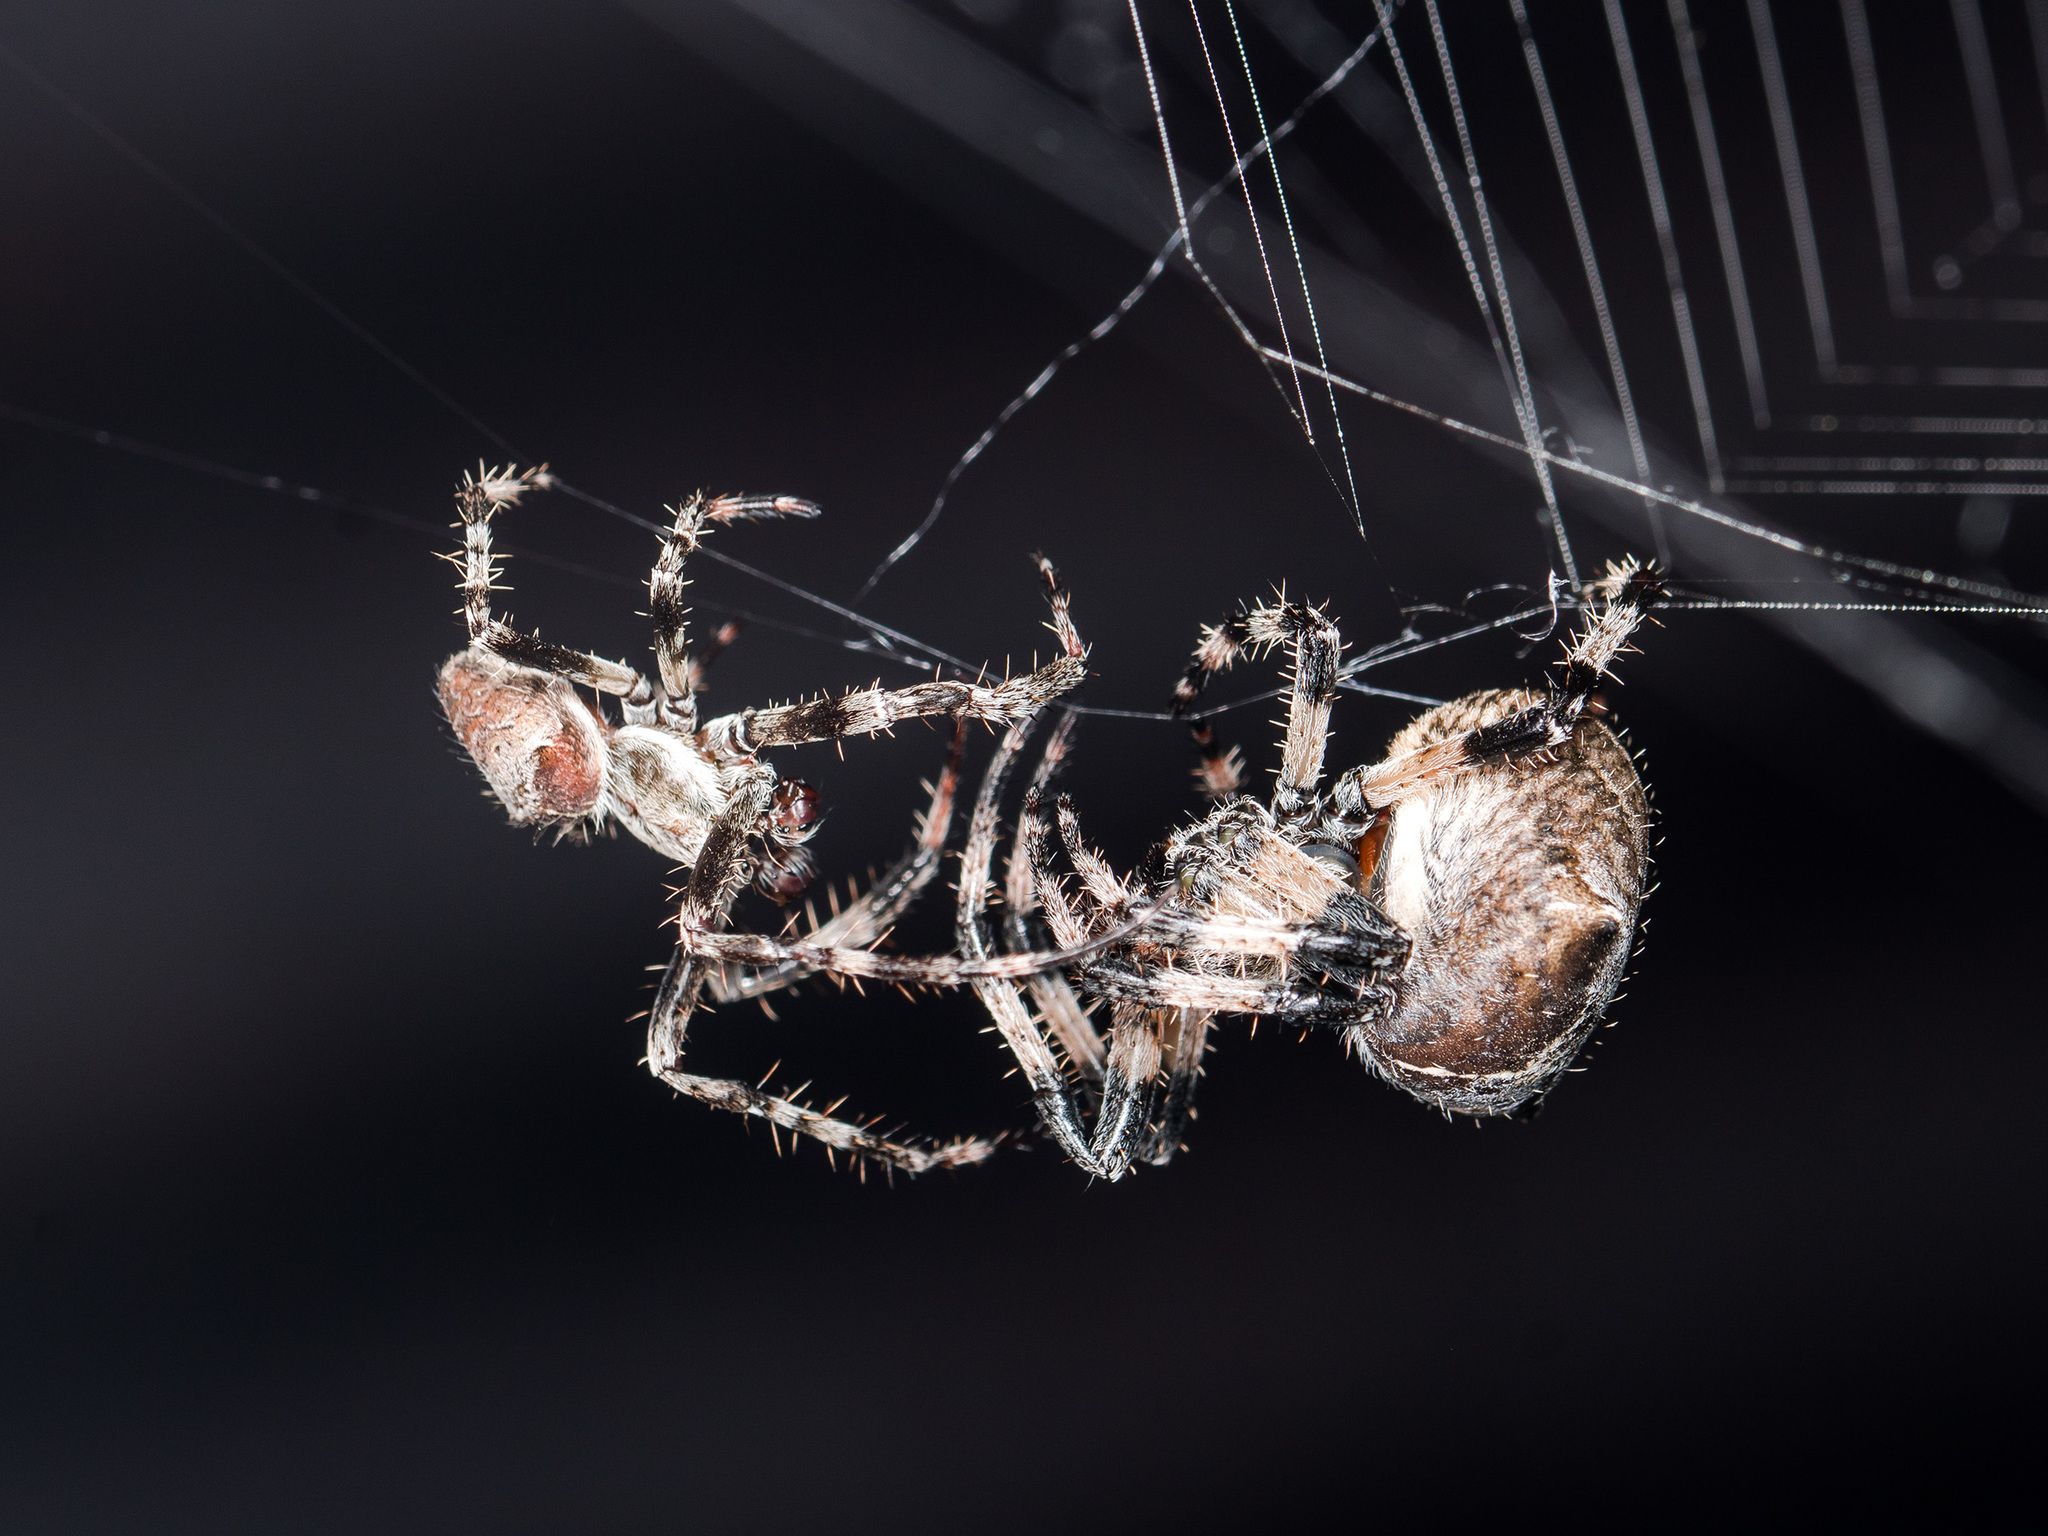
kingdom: Animalia
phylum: Arthropoda
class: Arachnida
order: Araneae
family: Araneidae
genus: Araneus
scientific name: Araneus tartaricus
